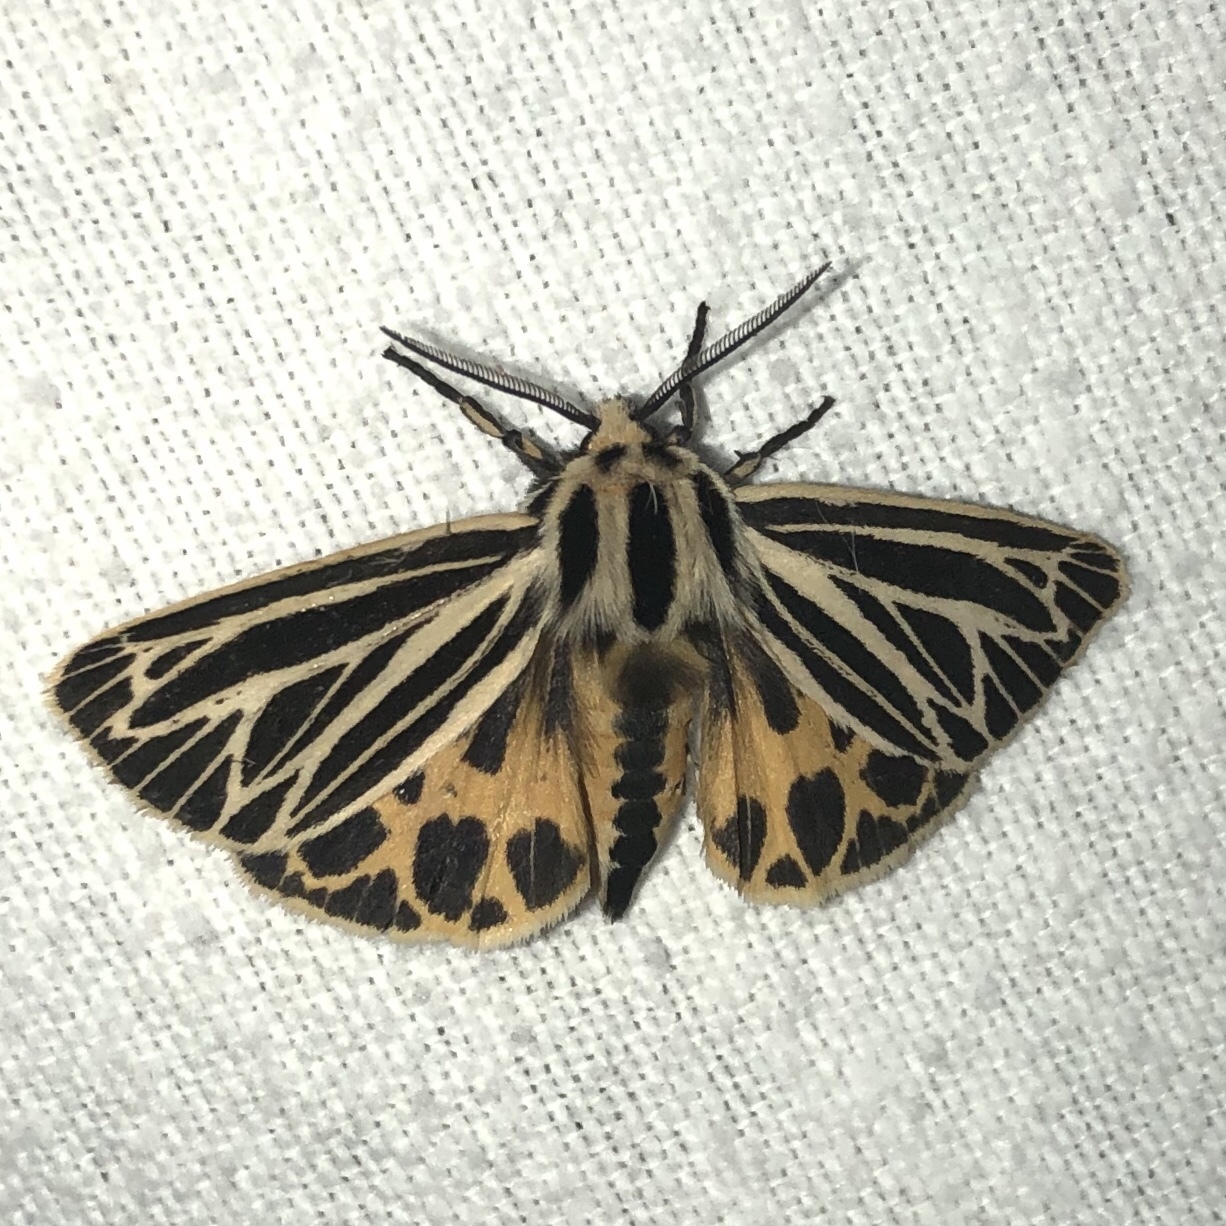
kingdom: Animalia
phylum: Arthropoda
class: Insecta
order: Lepidoptera
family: Erebidae
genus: Grammia
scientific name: Grammia virguncula
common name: Little tiger moth
